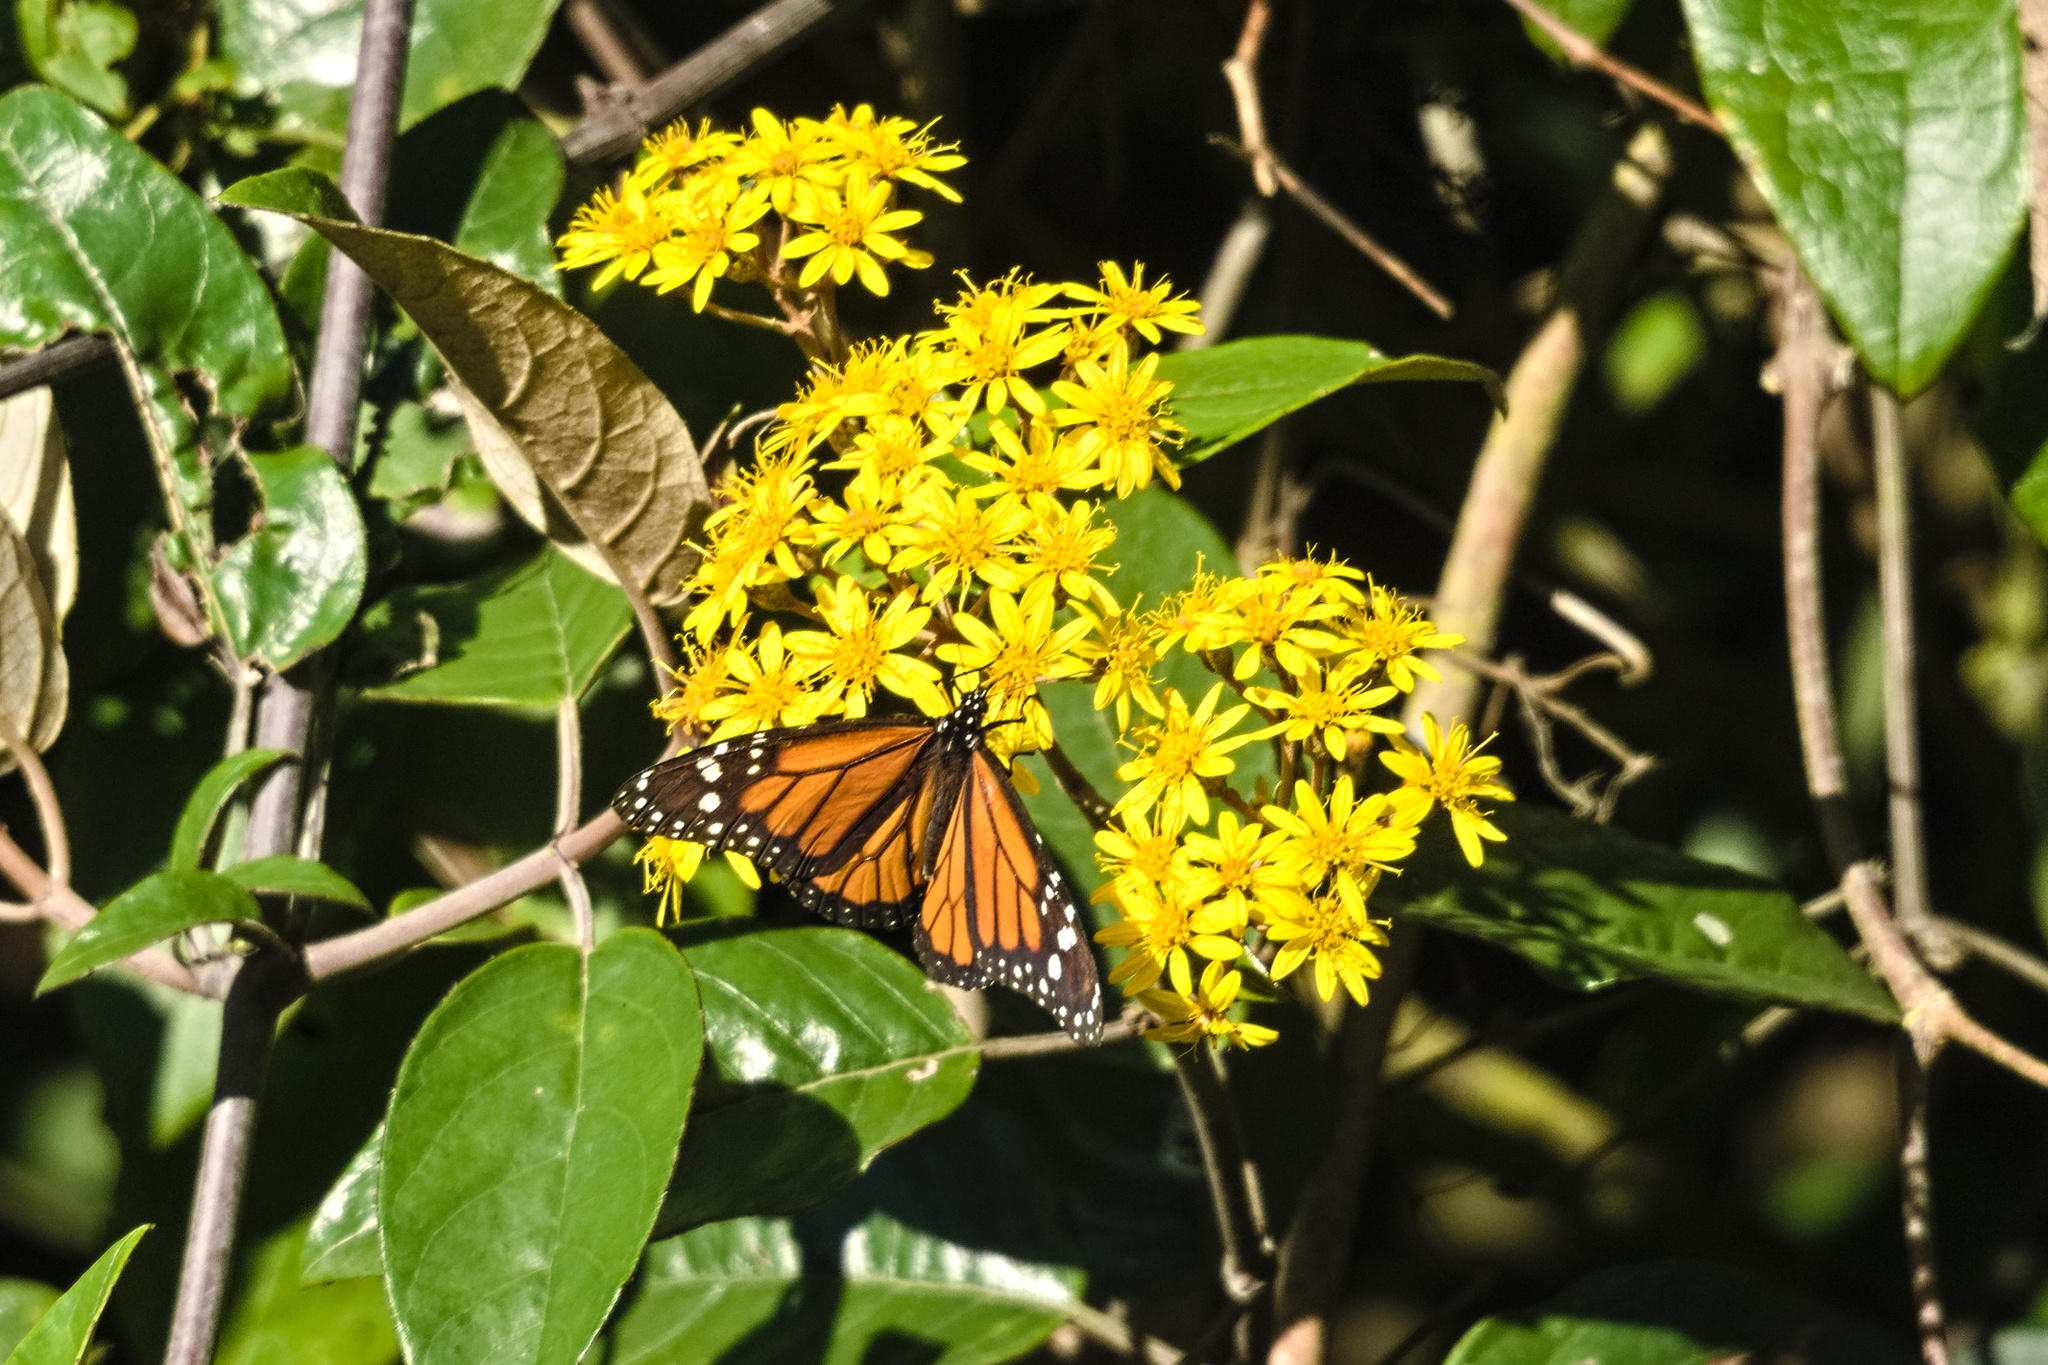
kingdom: Animalia
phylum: Arthropoda
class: Insecta
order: Lepidoptera
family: Nymphalidae
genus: Danaus
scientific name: Danaus plexippus
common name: Monarch
